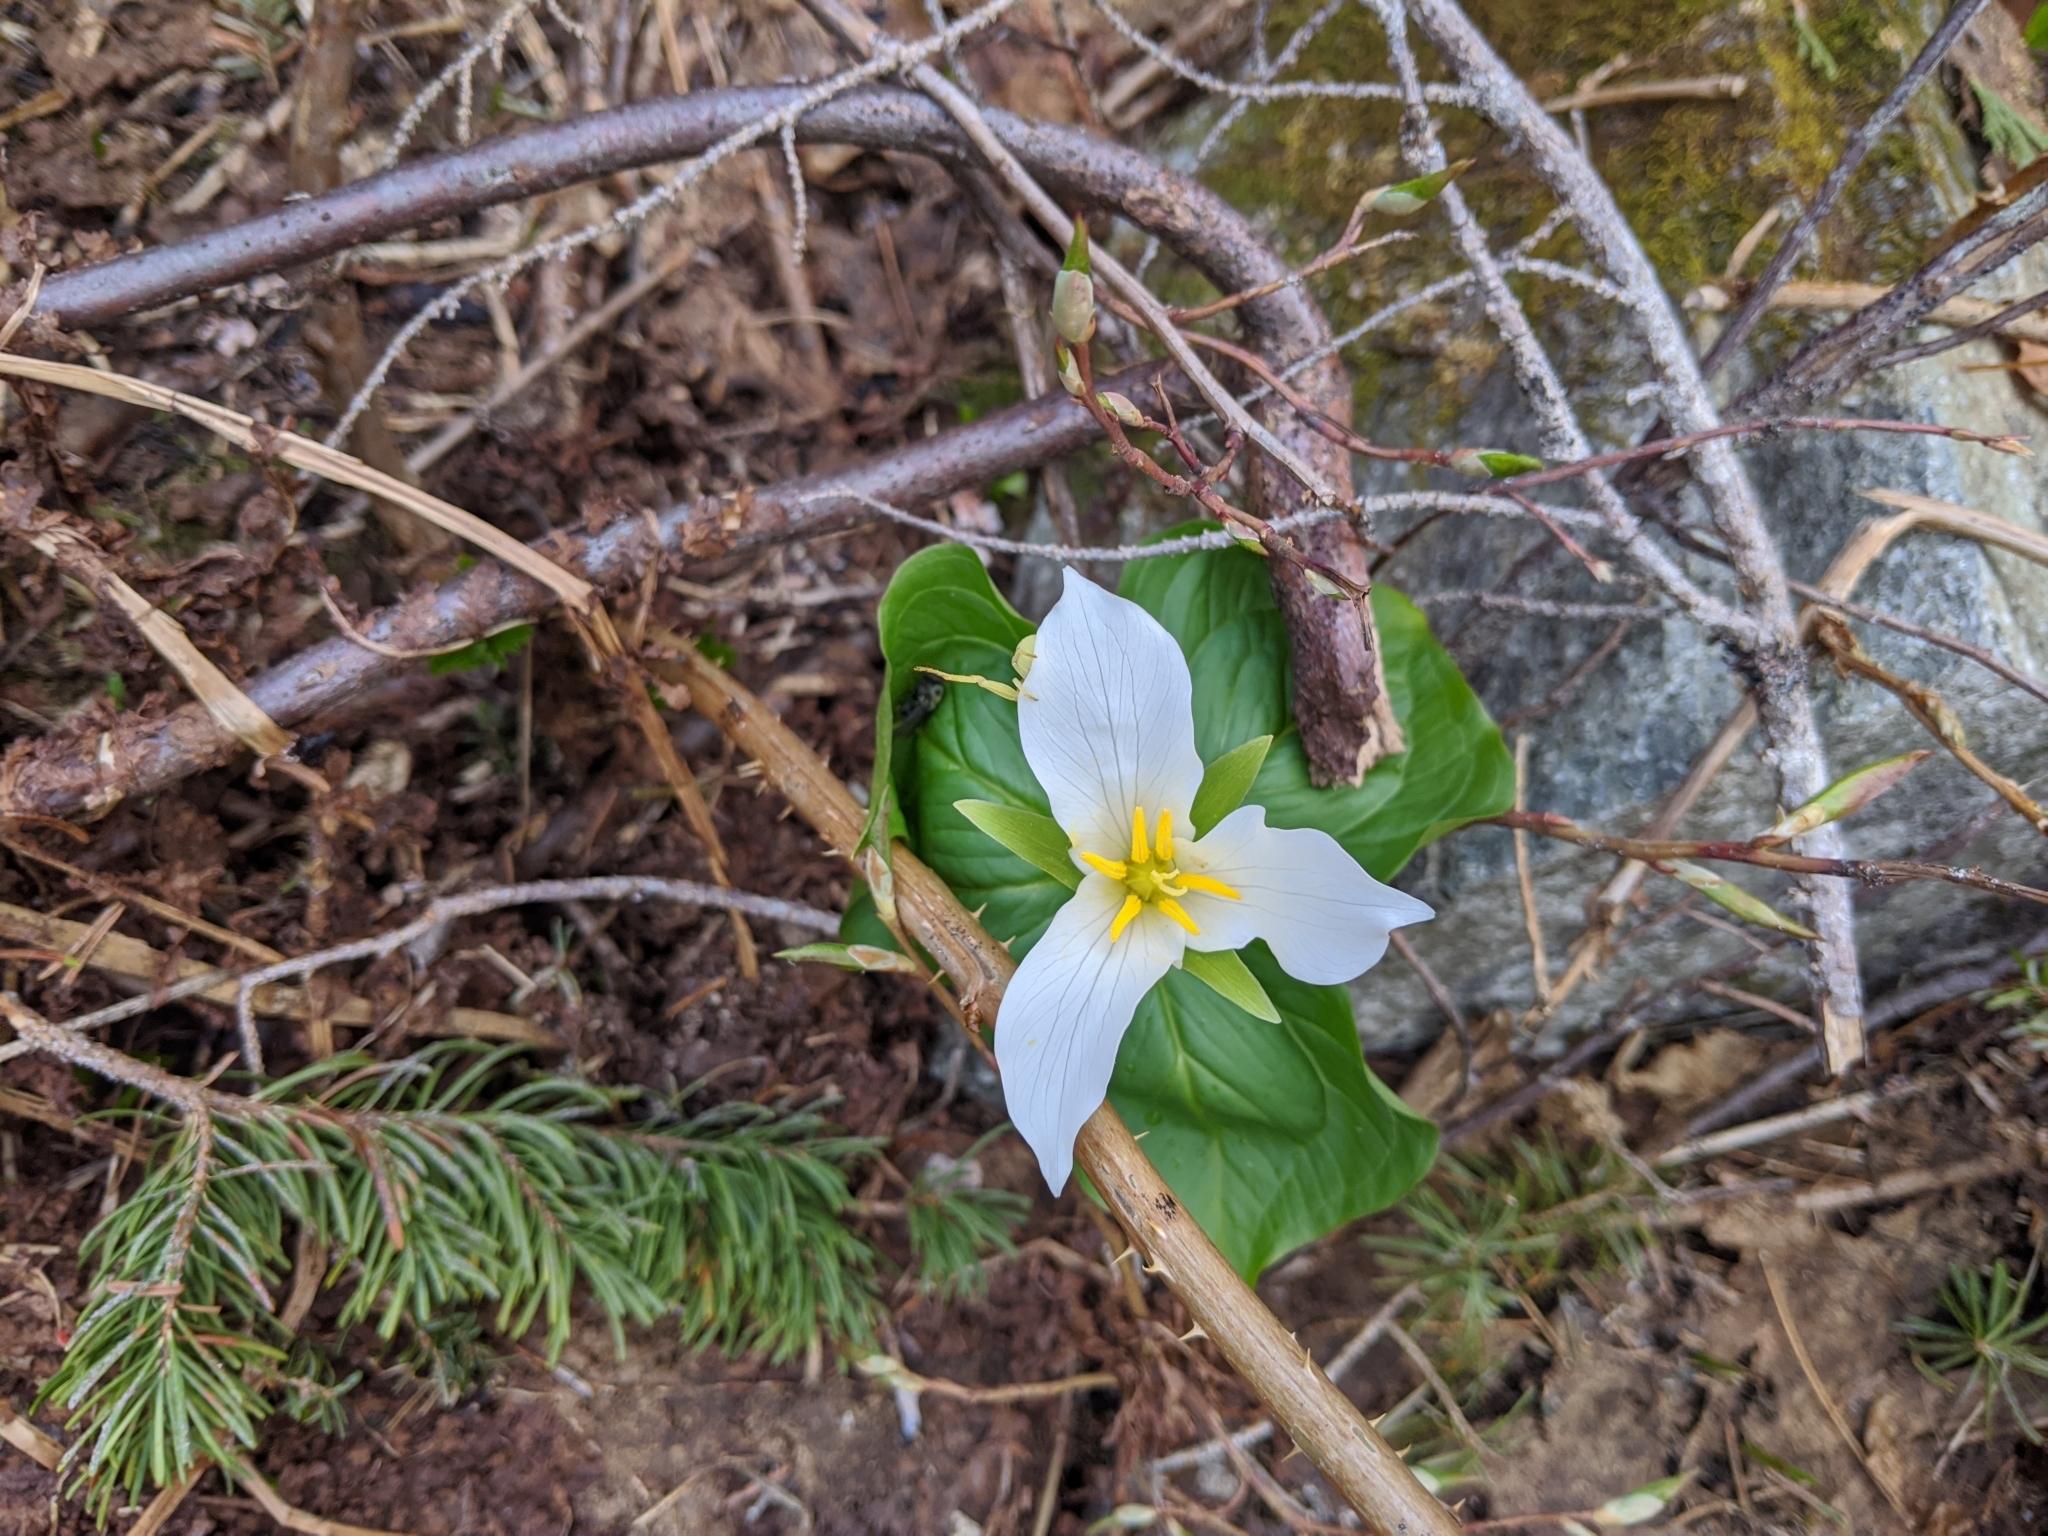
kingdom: Plantae
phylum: Tracheophyta
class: Liliopsida
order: Liliales
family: Melanthiaceae
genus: Trillium
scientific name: Trillium ovatum
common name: Pacific trillium
